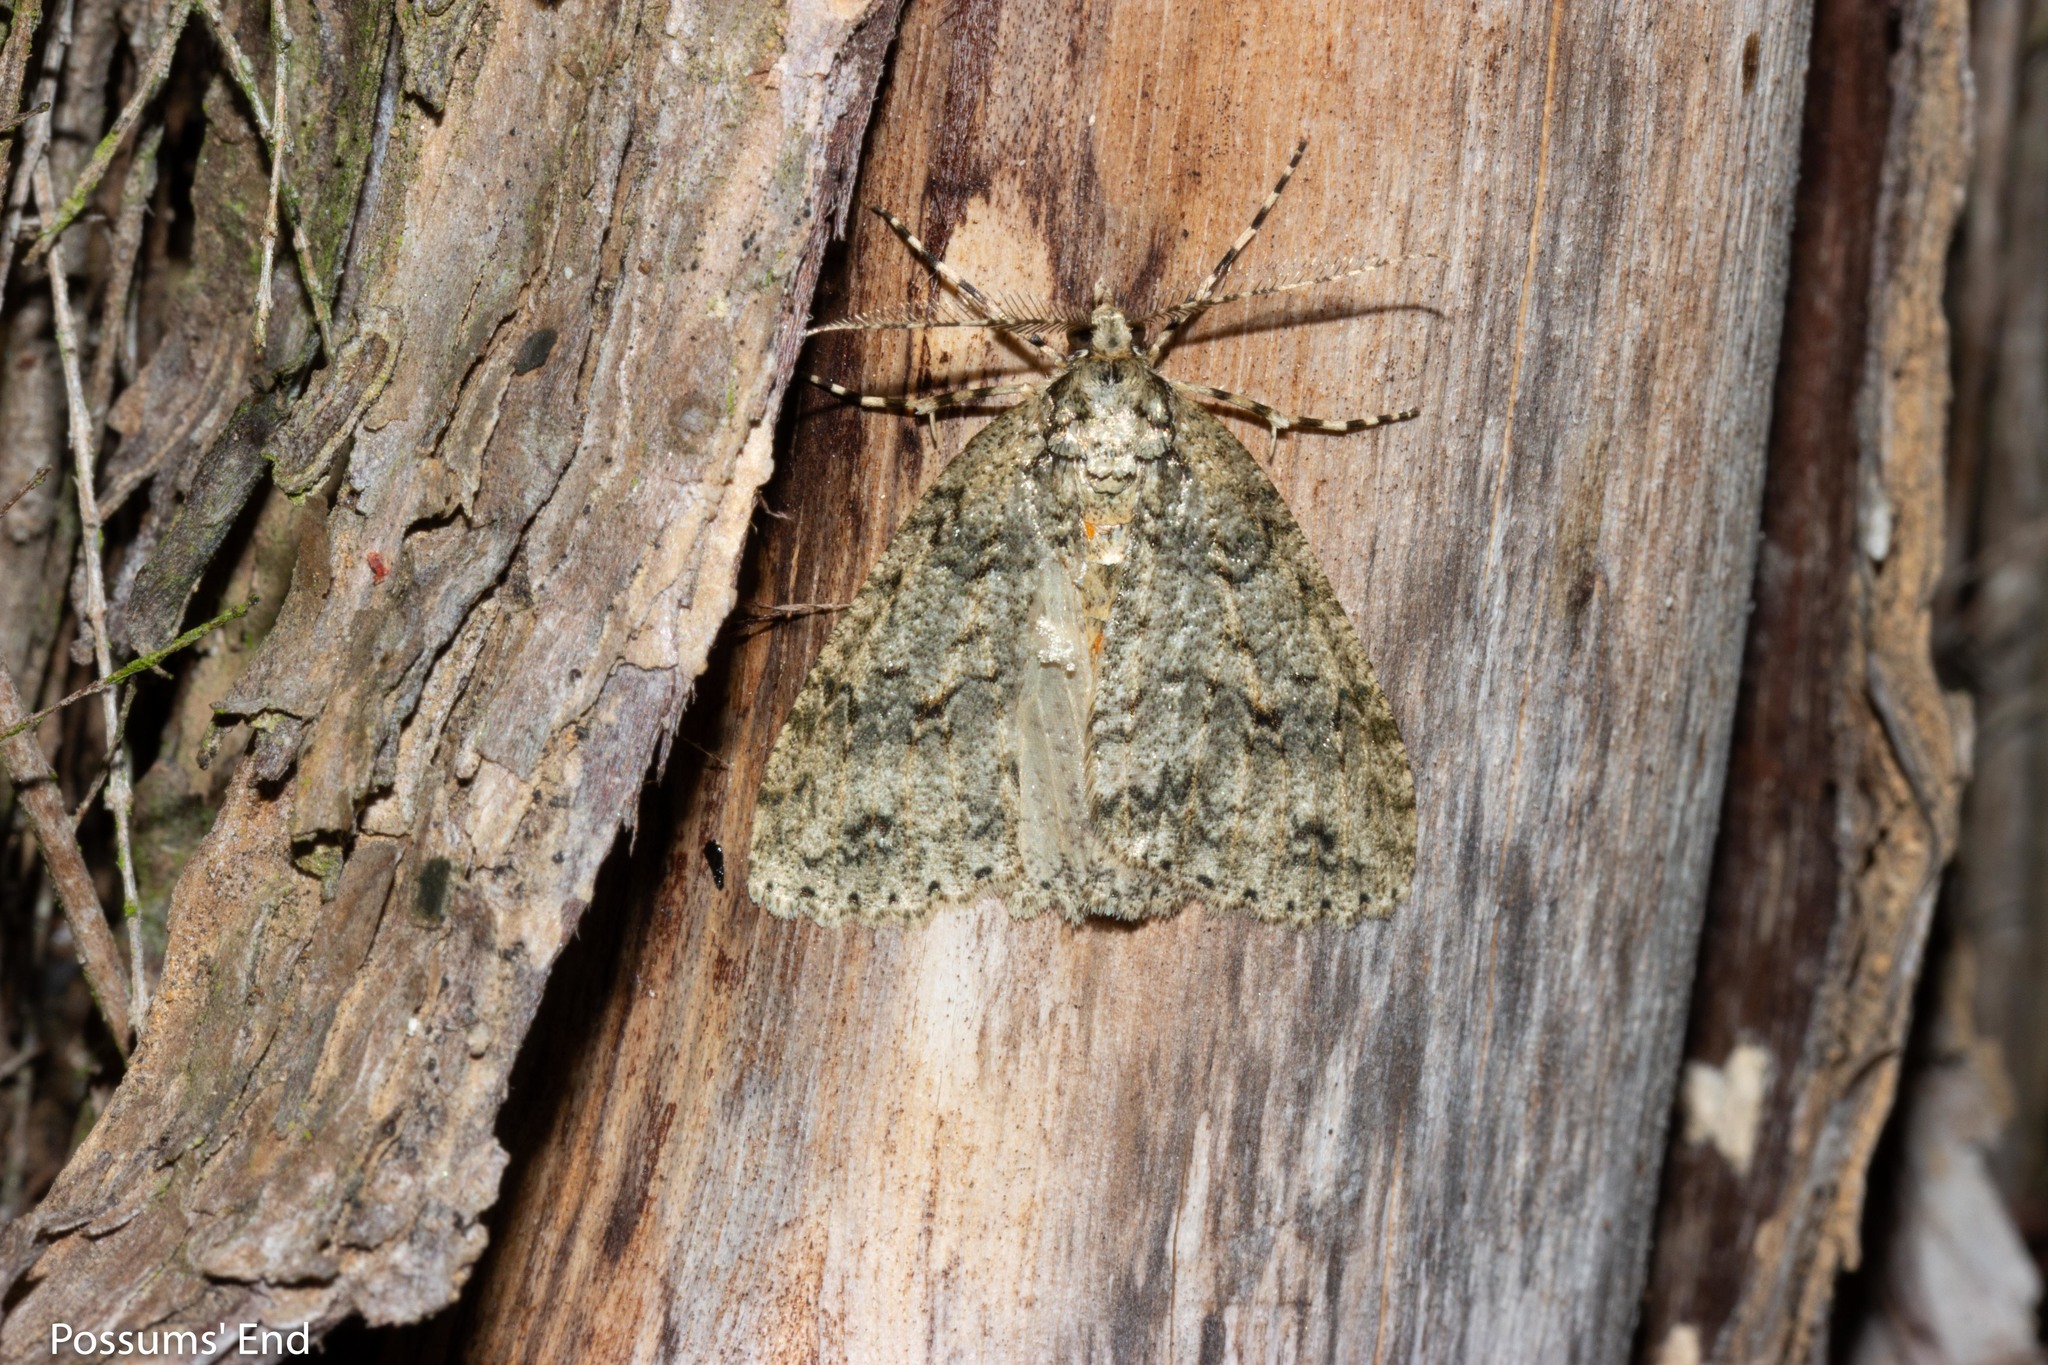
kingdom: Animalia
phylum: Arthropoda
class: Insecta
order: Lepidoptera
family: Geometridae
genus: Pseudocoremia
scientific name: Pseudocoremia rudisata
